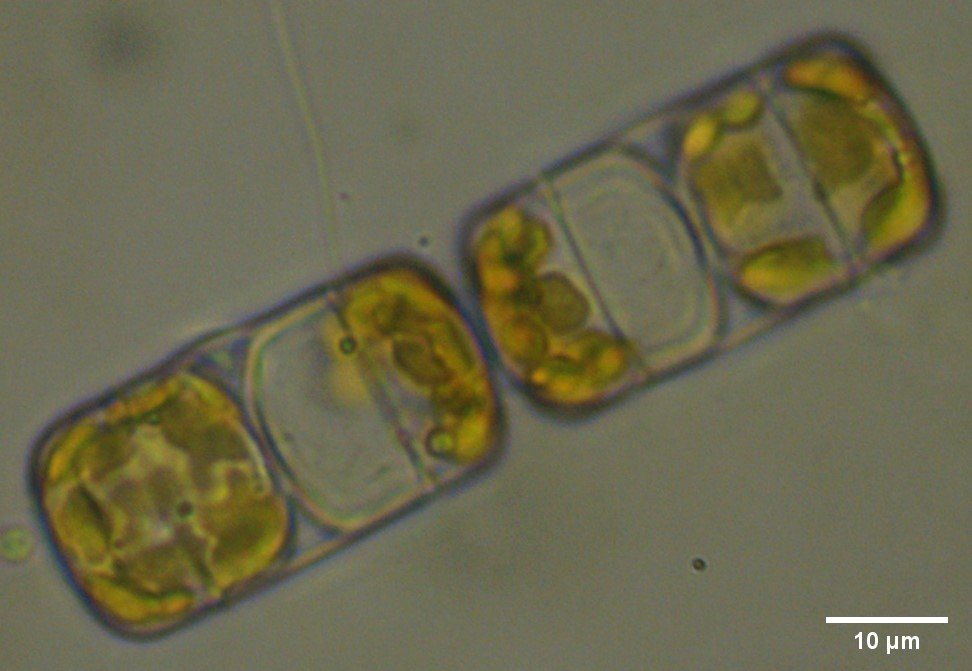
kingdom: Chromista
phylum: Ochrophyta
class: Bacillariophyceae
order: Melosirales
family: Hyalodiscaceae
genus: Podosira
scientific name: Podosira dubia
